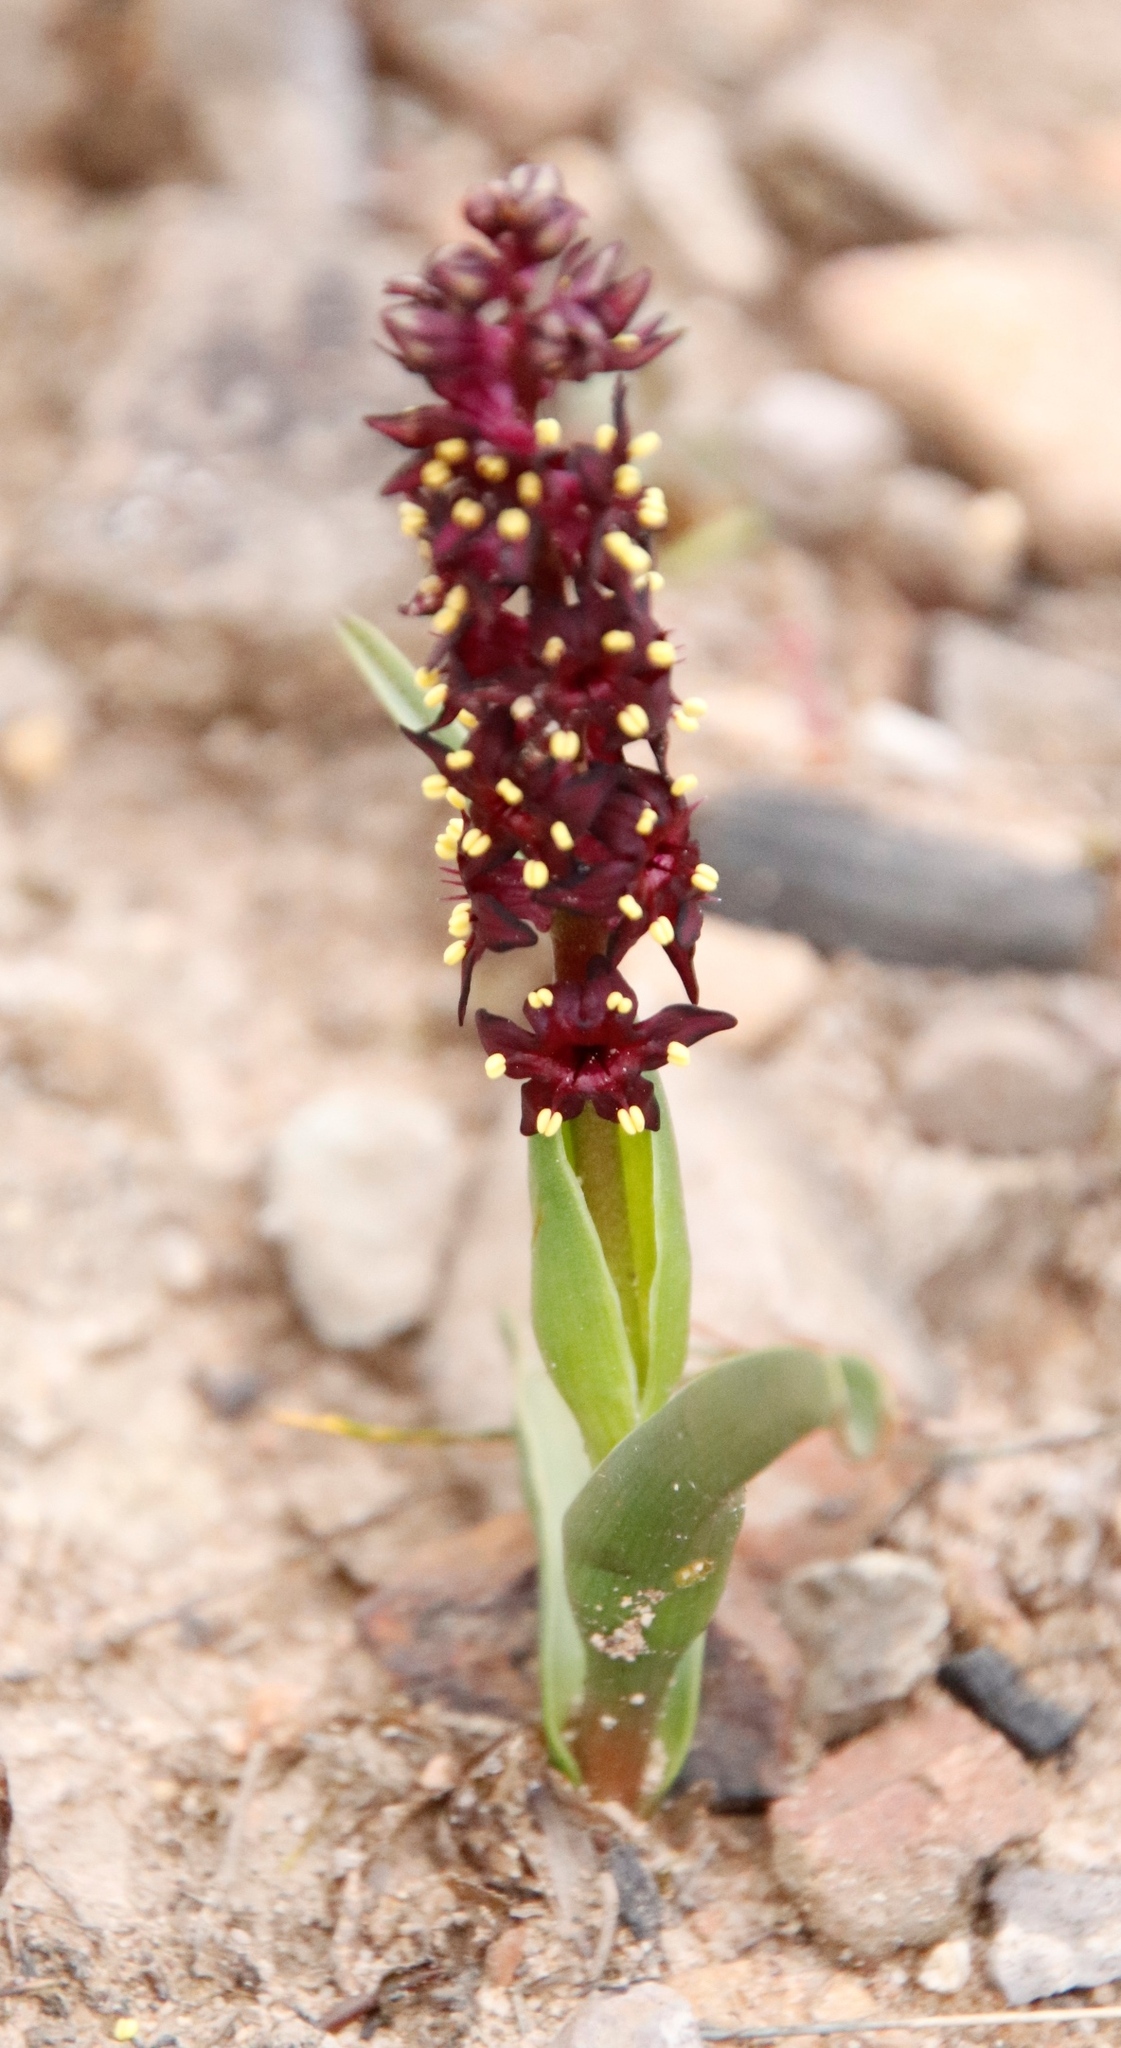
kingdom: Plantae
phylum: Tracheophyta
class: Liliopsida
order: Liliales
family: Colchicaceae
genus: Wurmbea
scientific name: Wurmbea recurva
